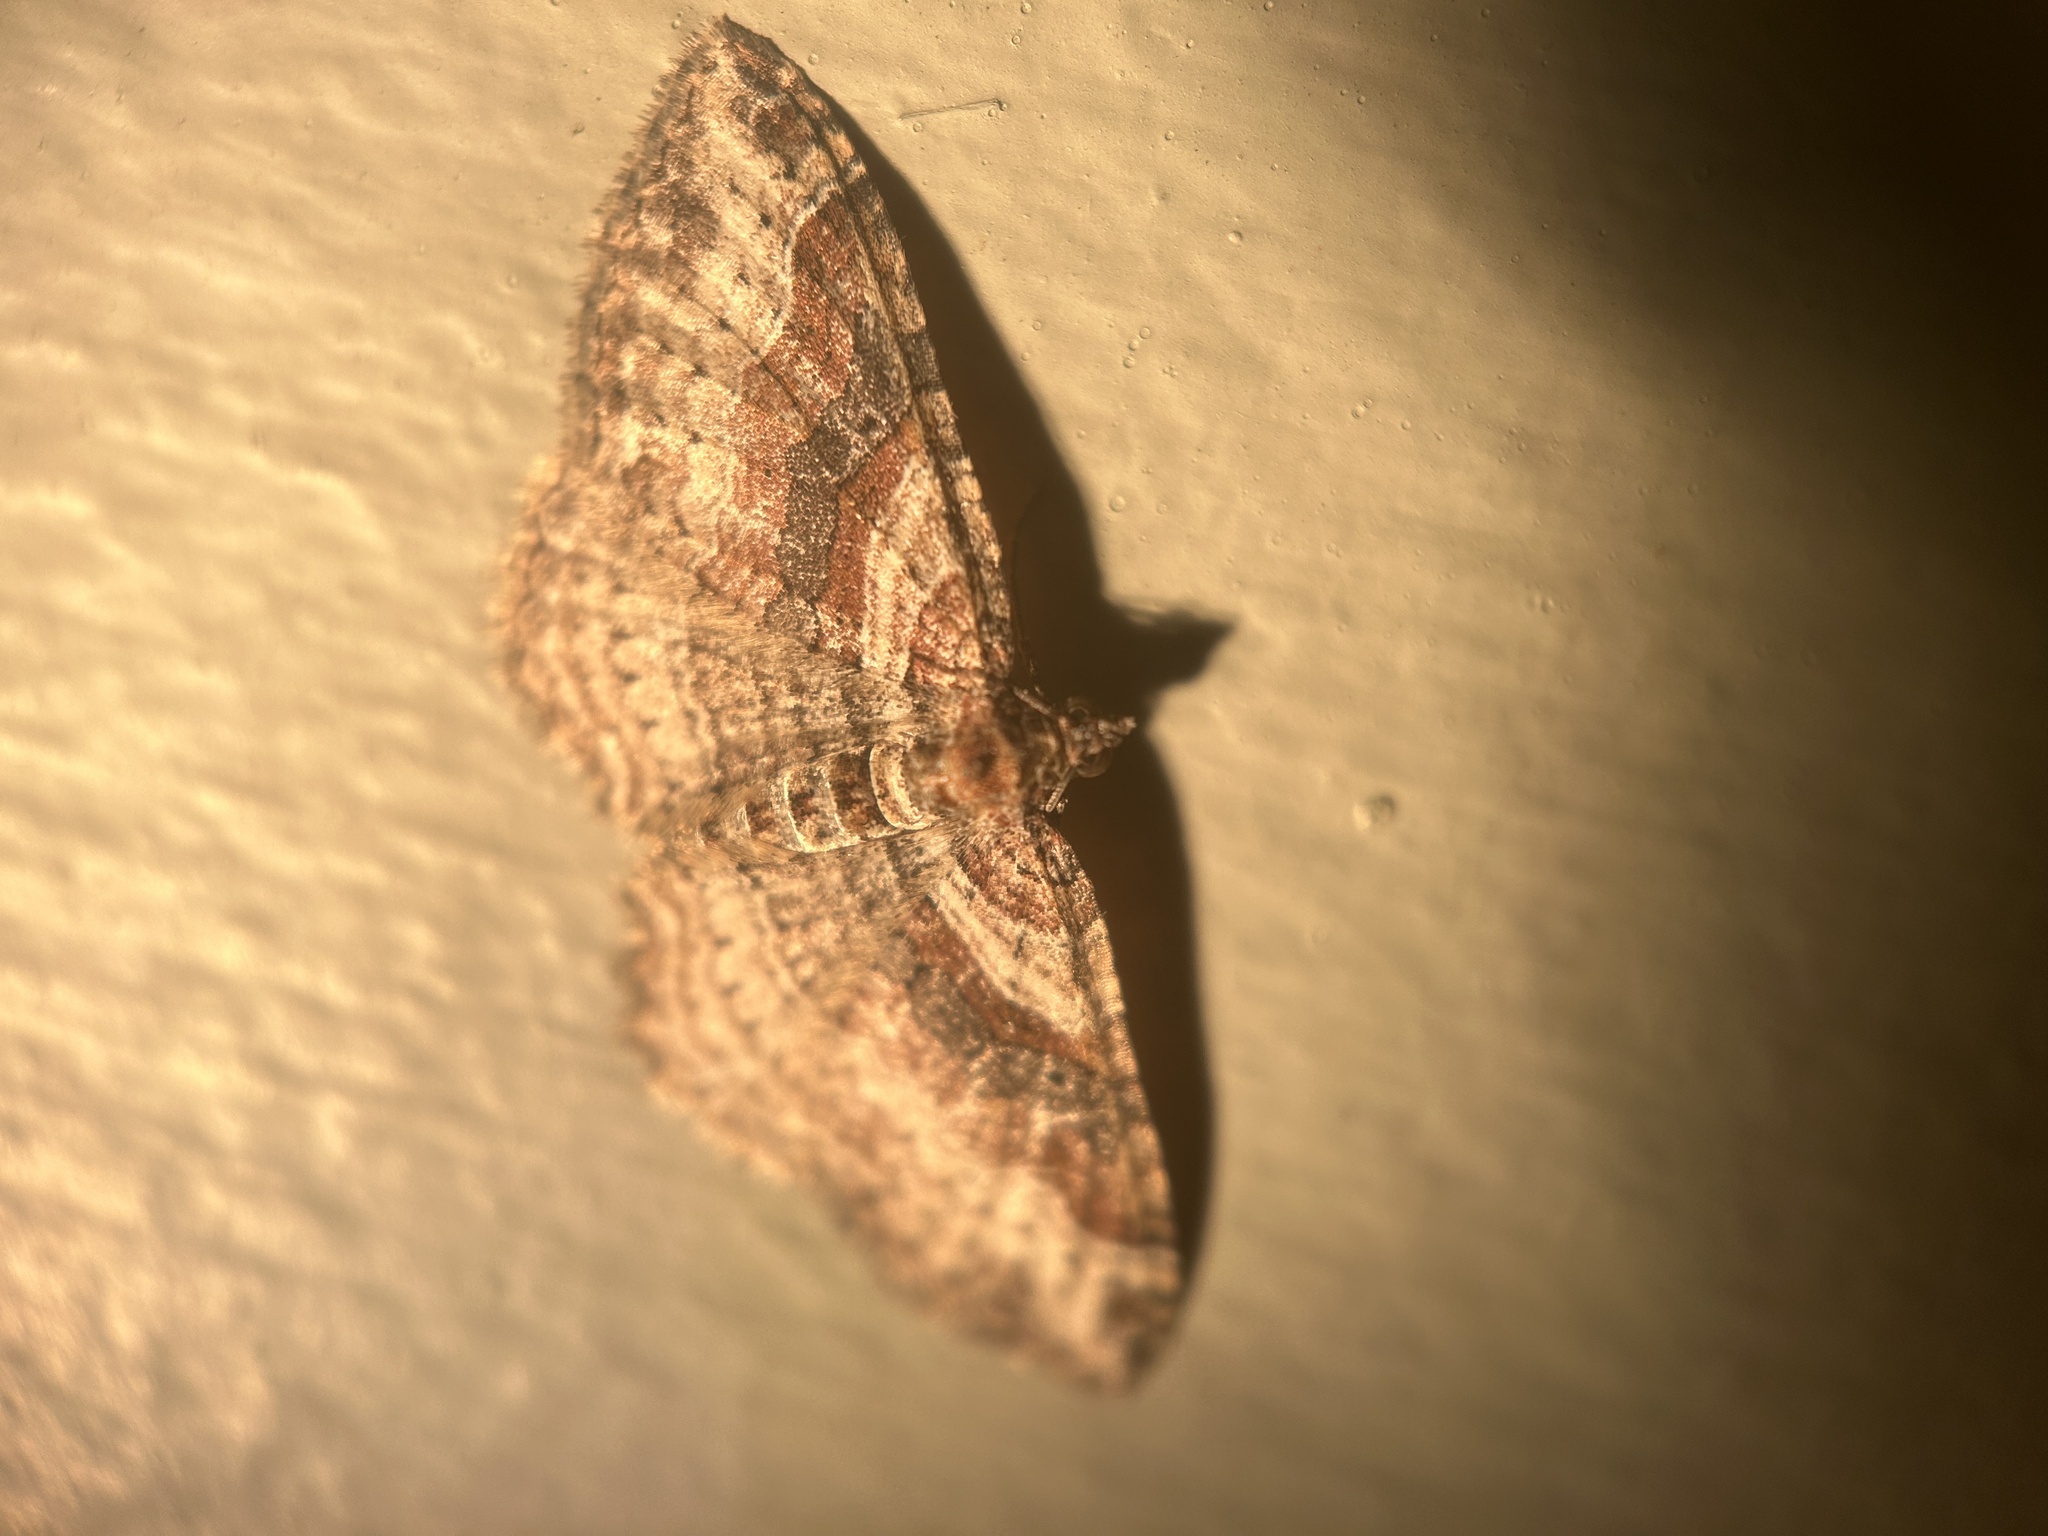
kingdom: Animalia
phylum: Arthropoda
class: Insecta
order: Lepidoptera
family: Geometridae
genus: Costaconvexa
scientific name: Costaconvexa centrostrigaria
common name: Bent-line carpet
